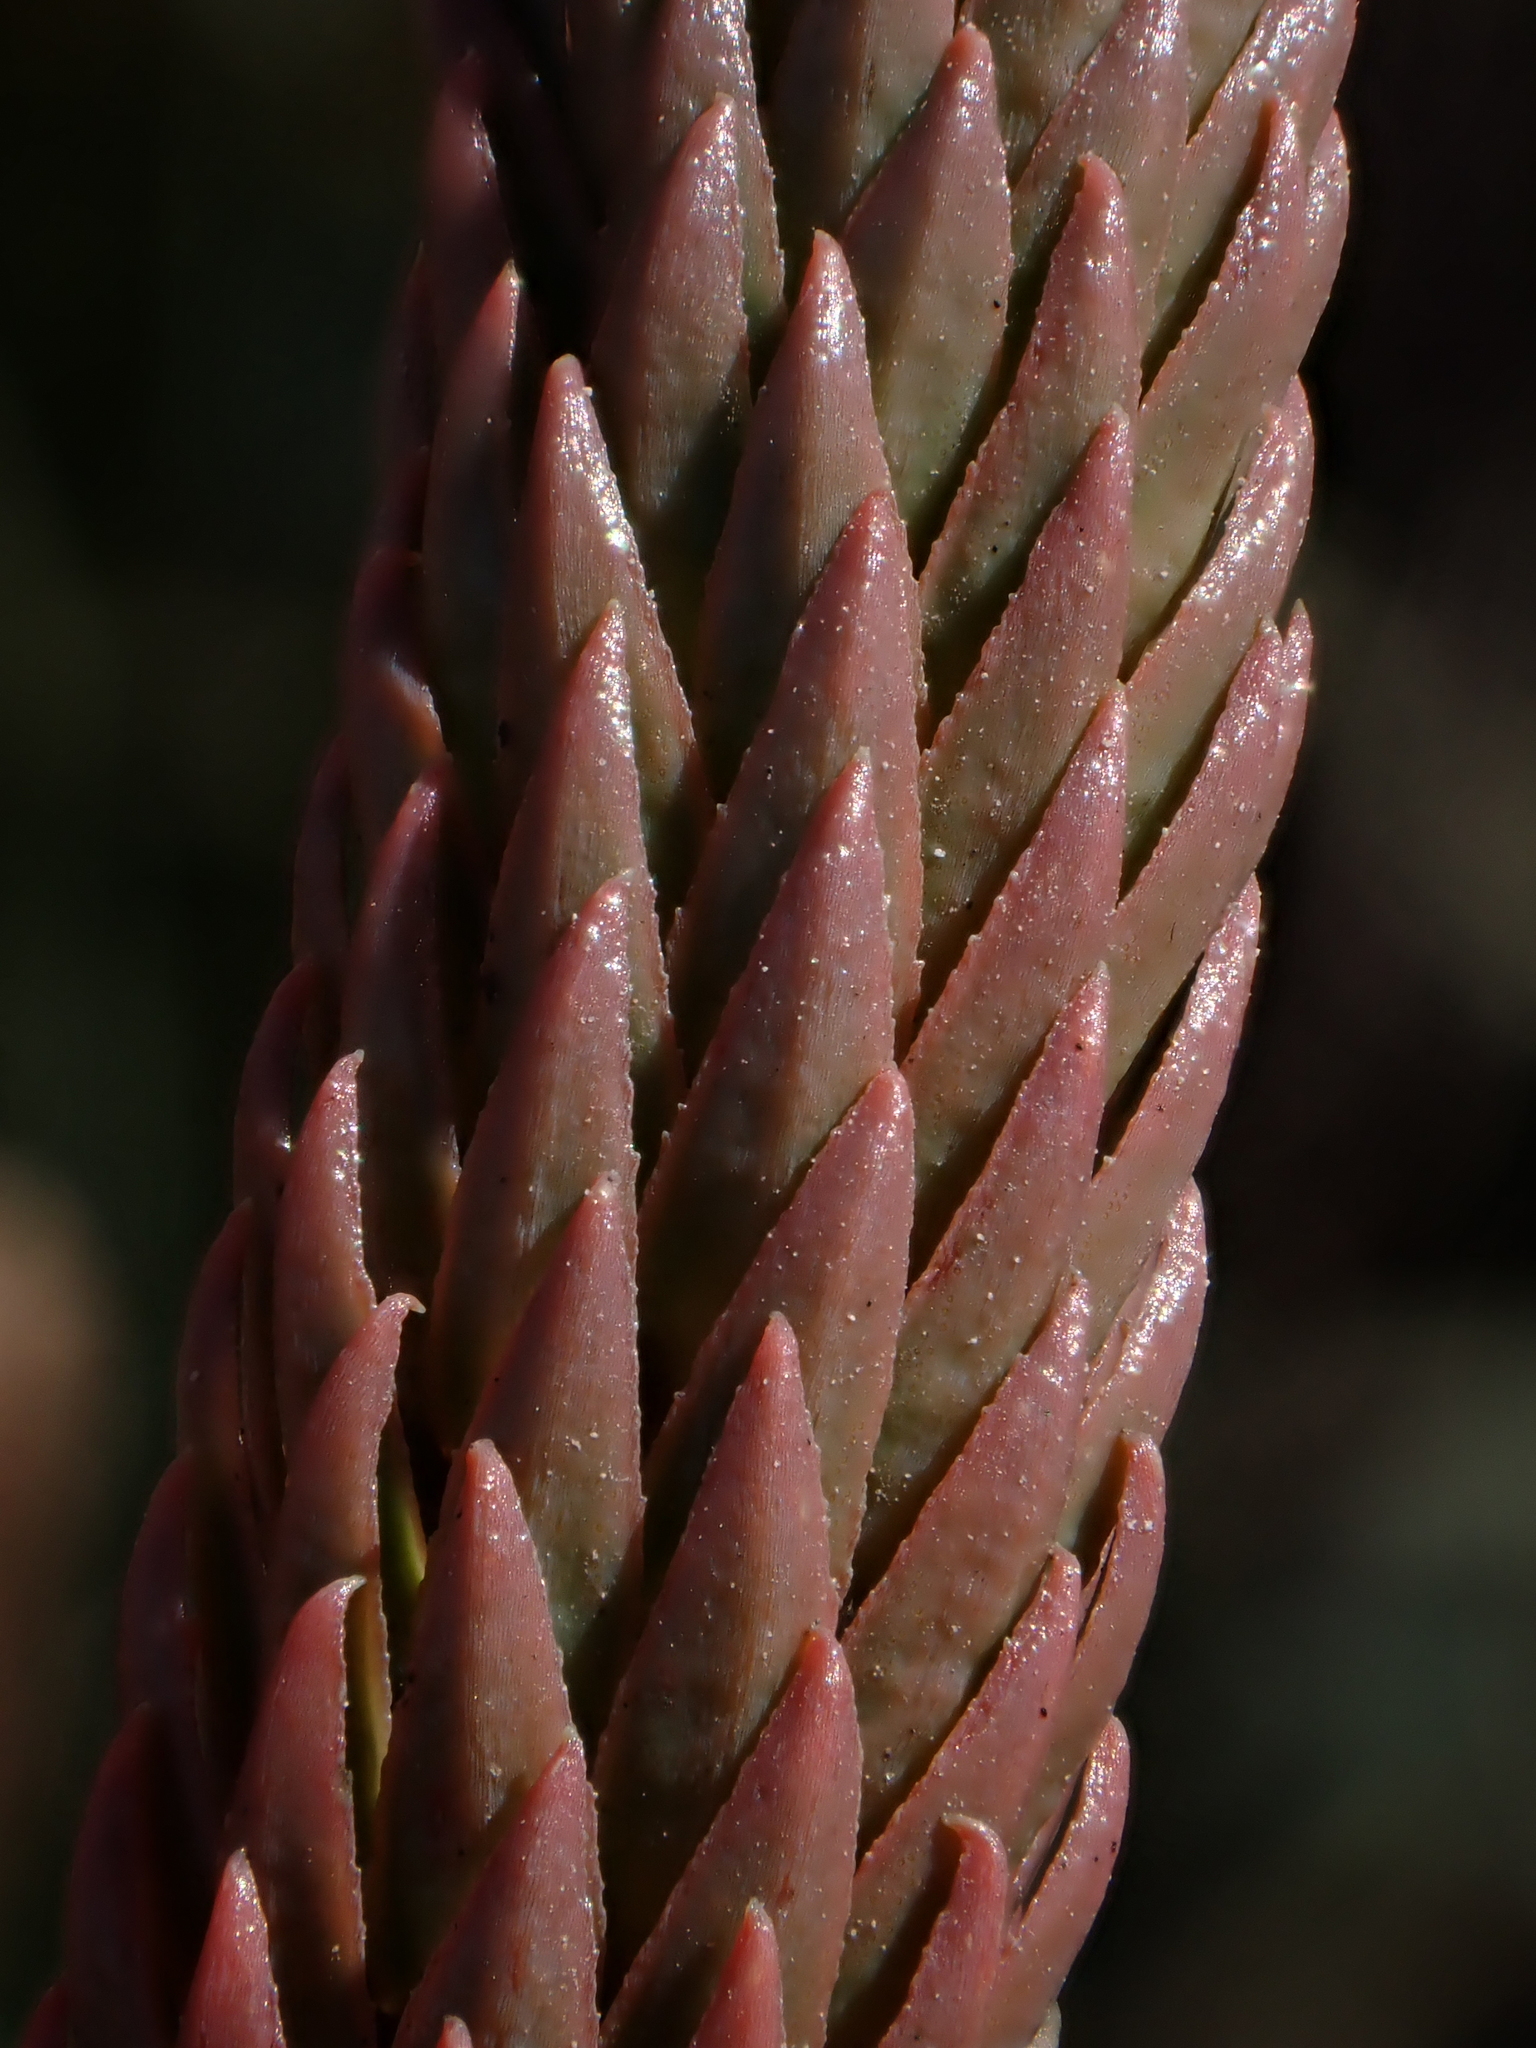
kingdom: Plantae
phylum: Tracheophyta
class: Lycopodiopsida
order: Lycopodiales
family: Lycopodiaceae
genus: Phlegmariurus
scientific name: Phlegmariurus crassus
